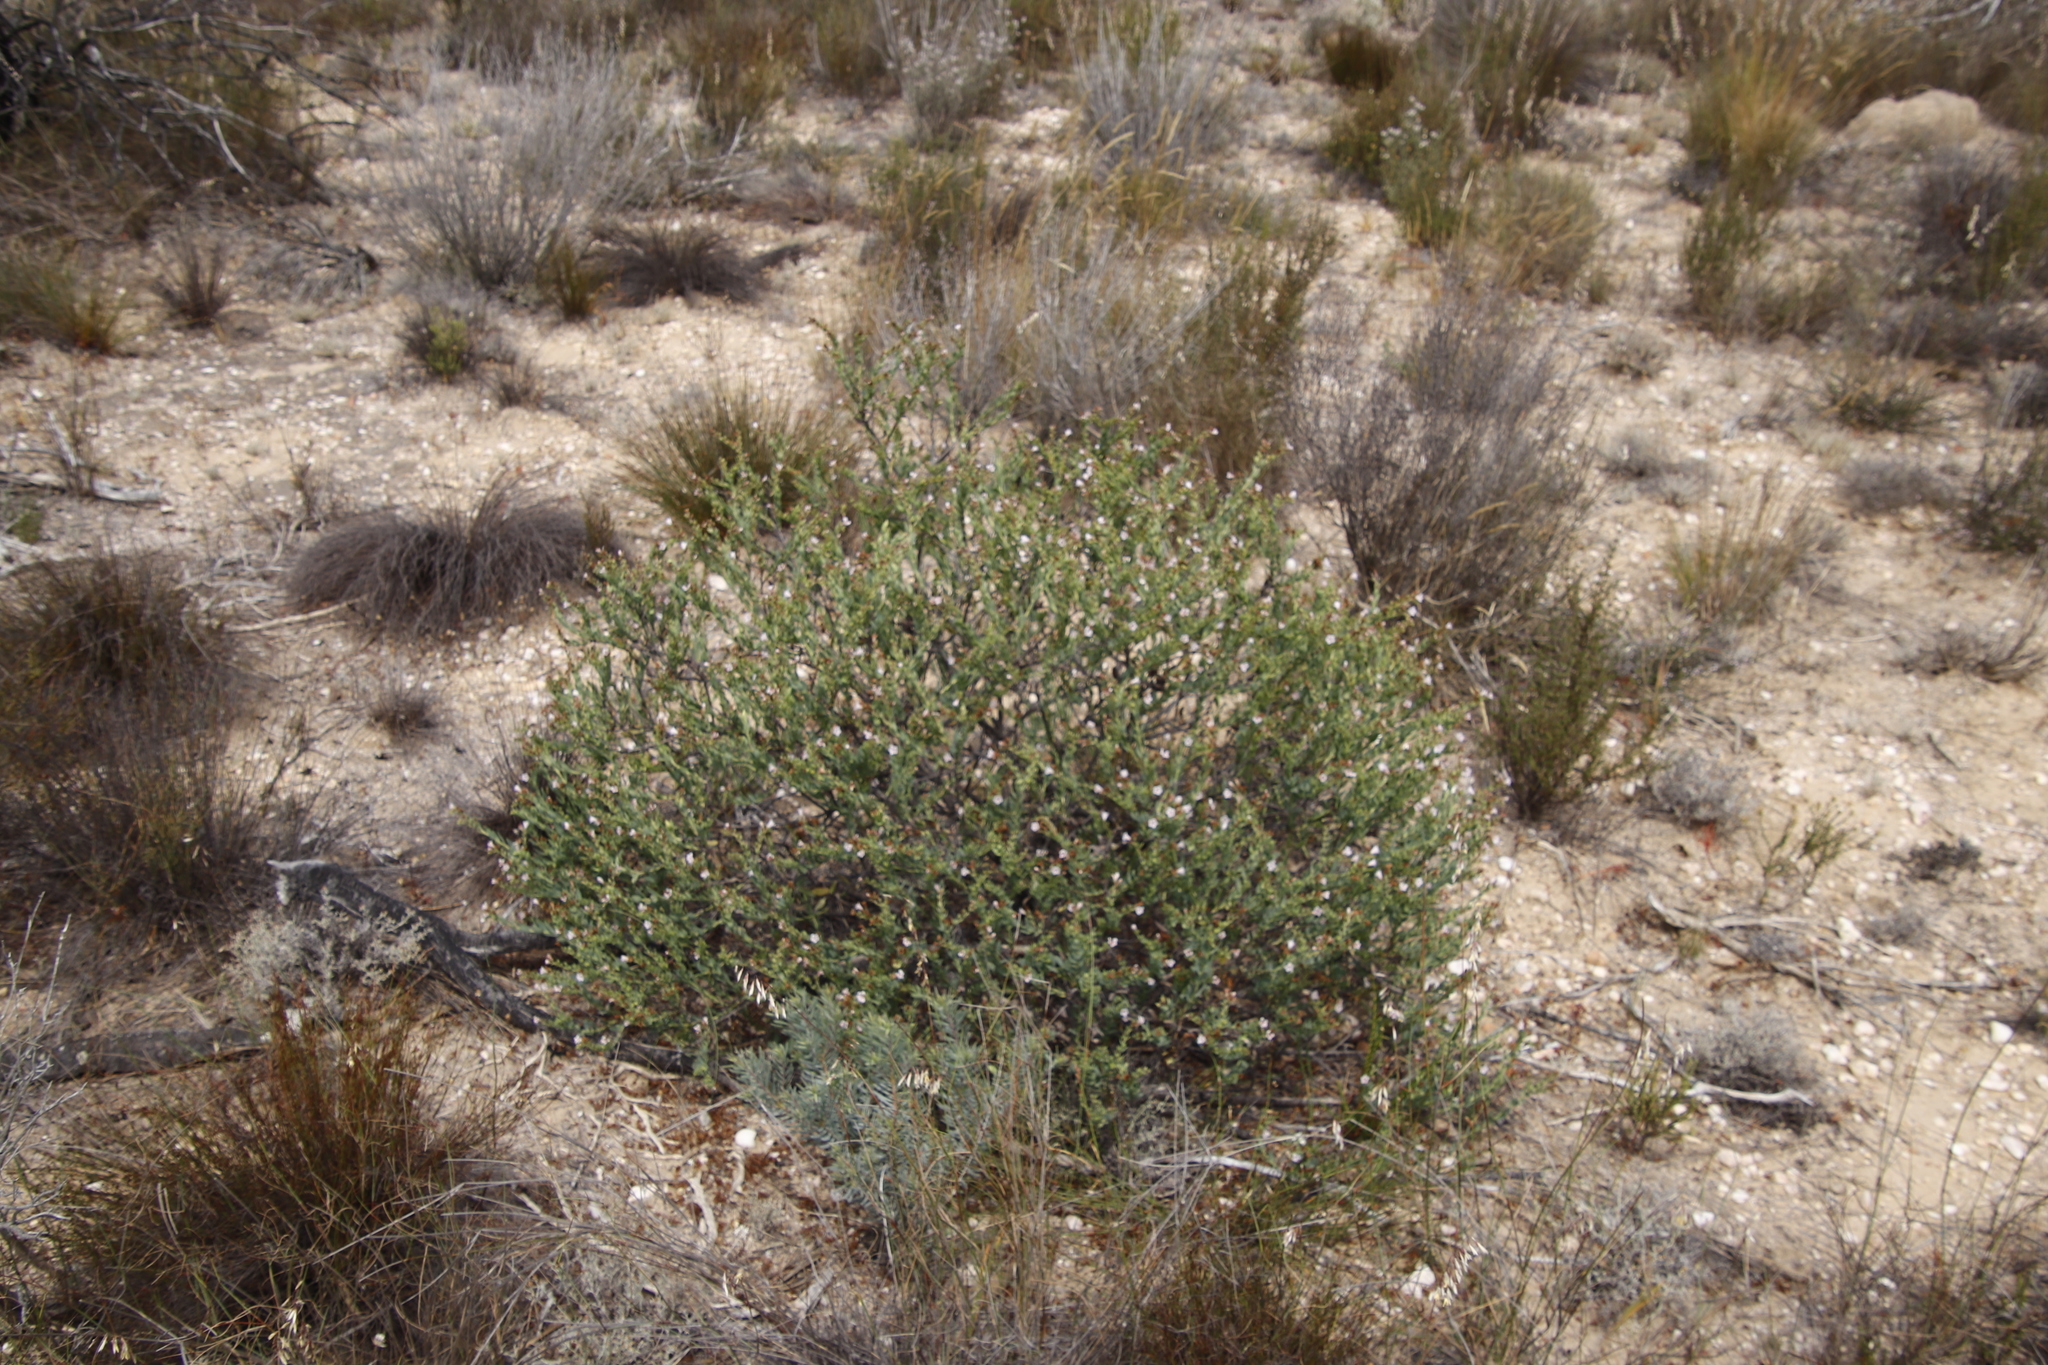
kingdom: Plantae
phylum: Tracheophyta
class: Magnoliopsida
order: Boraginales
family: Boraginaceae
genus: Lobostemon
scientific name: Lobostemon glaucophyllus
